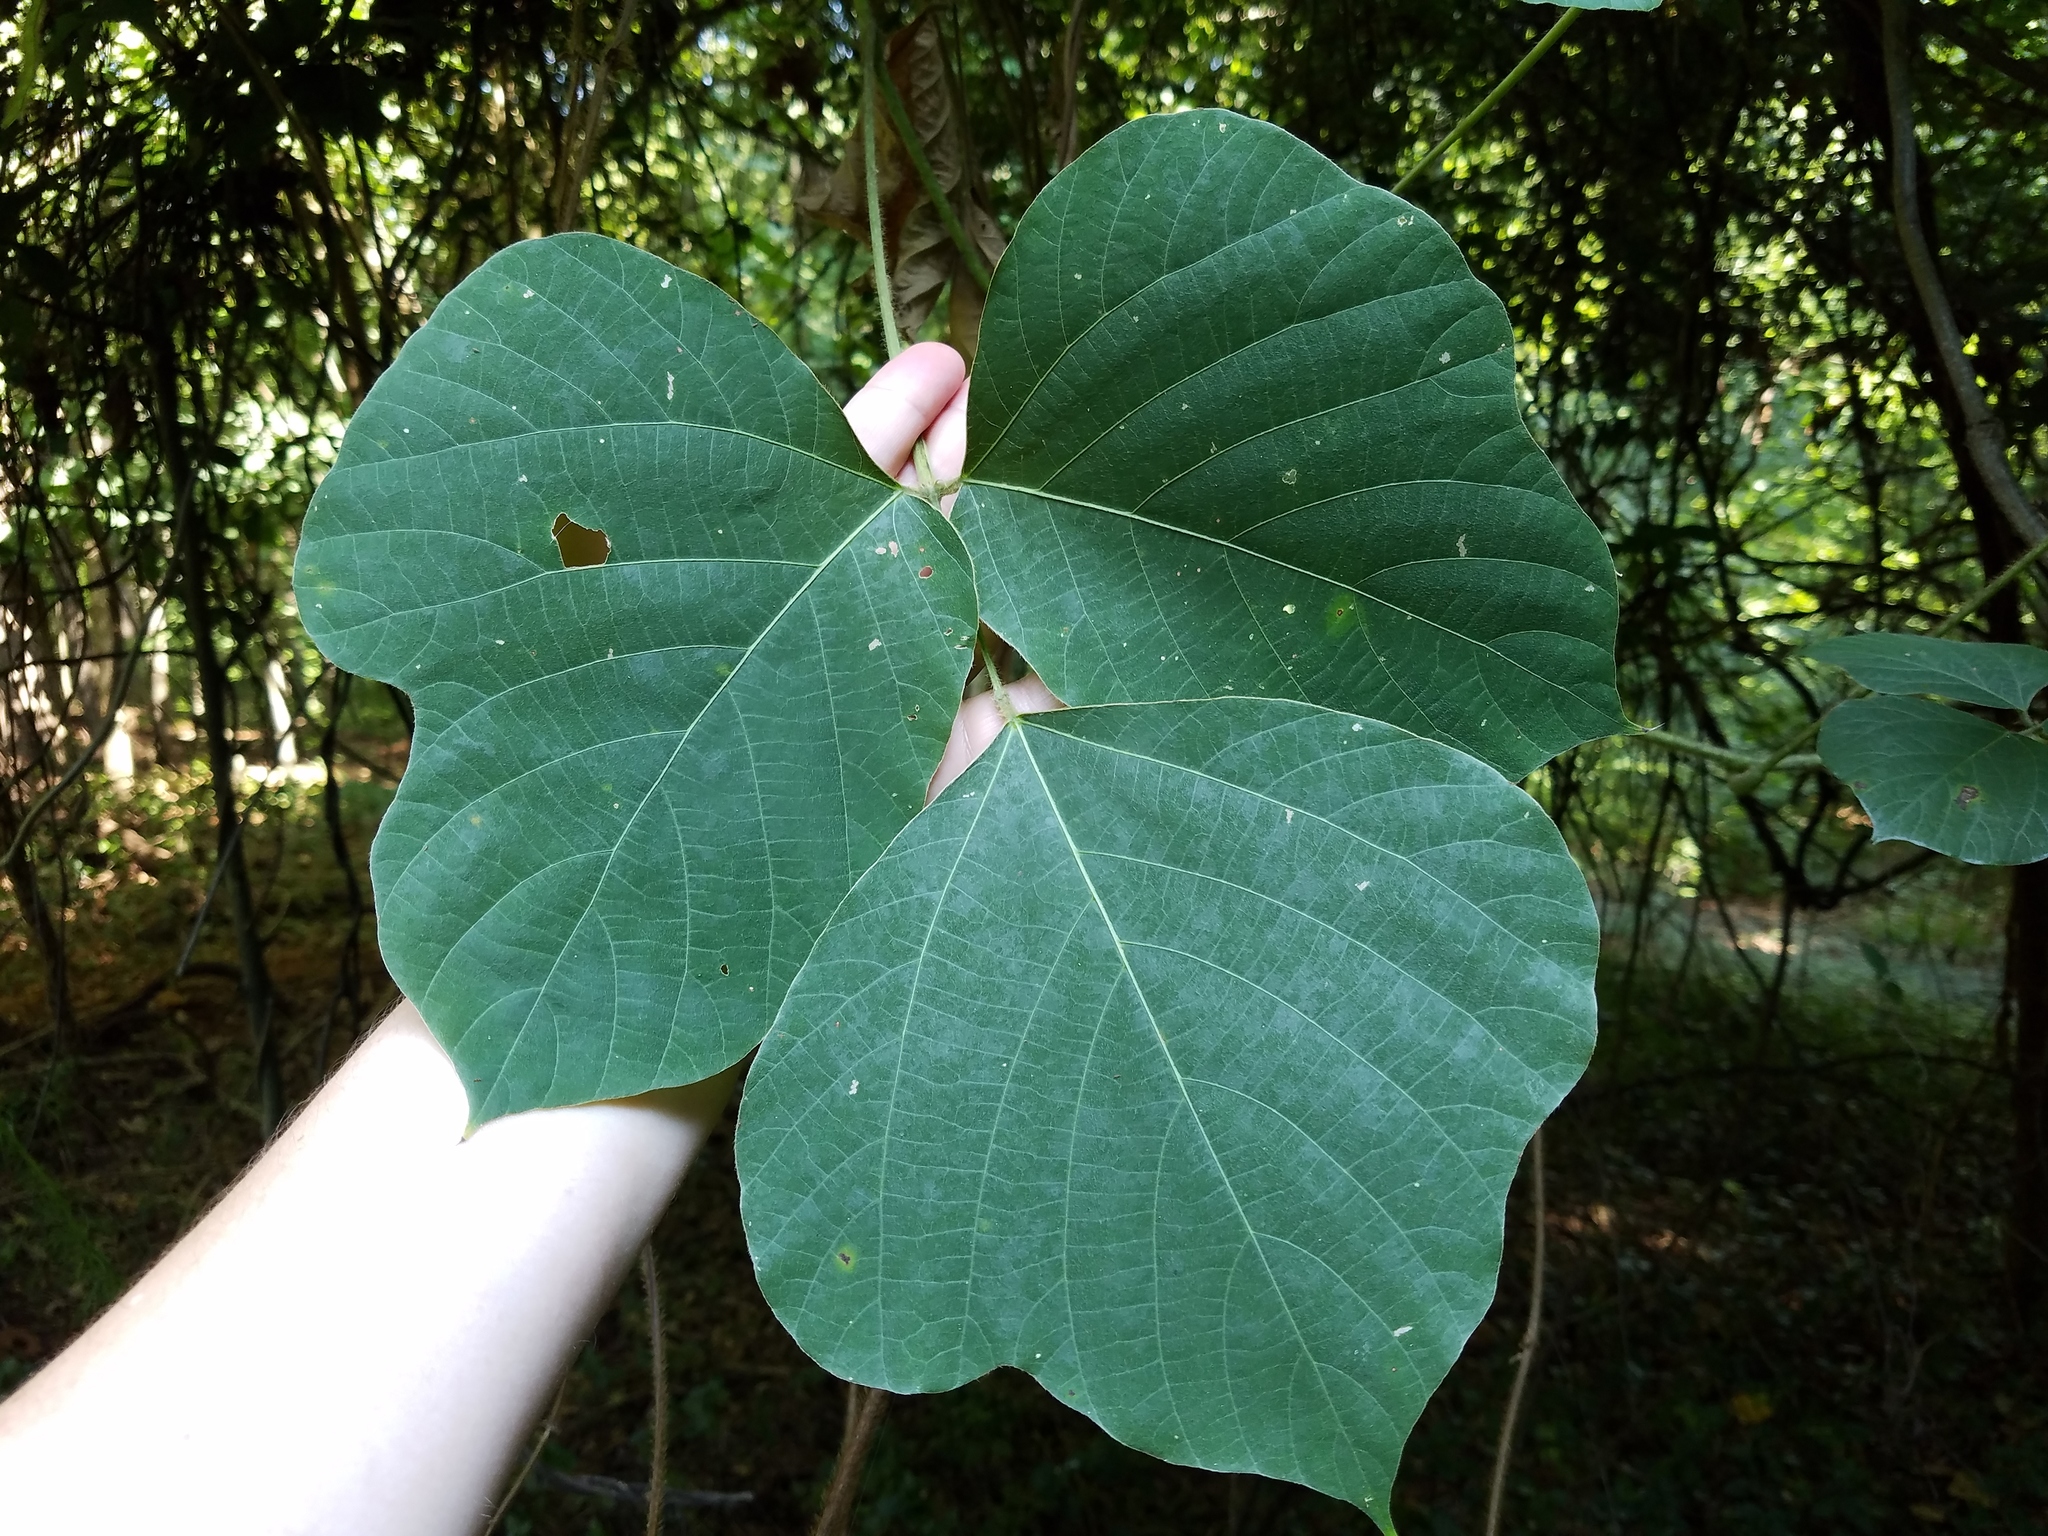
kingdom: Plantae
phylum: Tracheophyta
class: Magnoliopsida
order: Fabales
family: Fabaceae
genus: Pueraria
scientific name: Pueraria montana
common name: Kudzu
